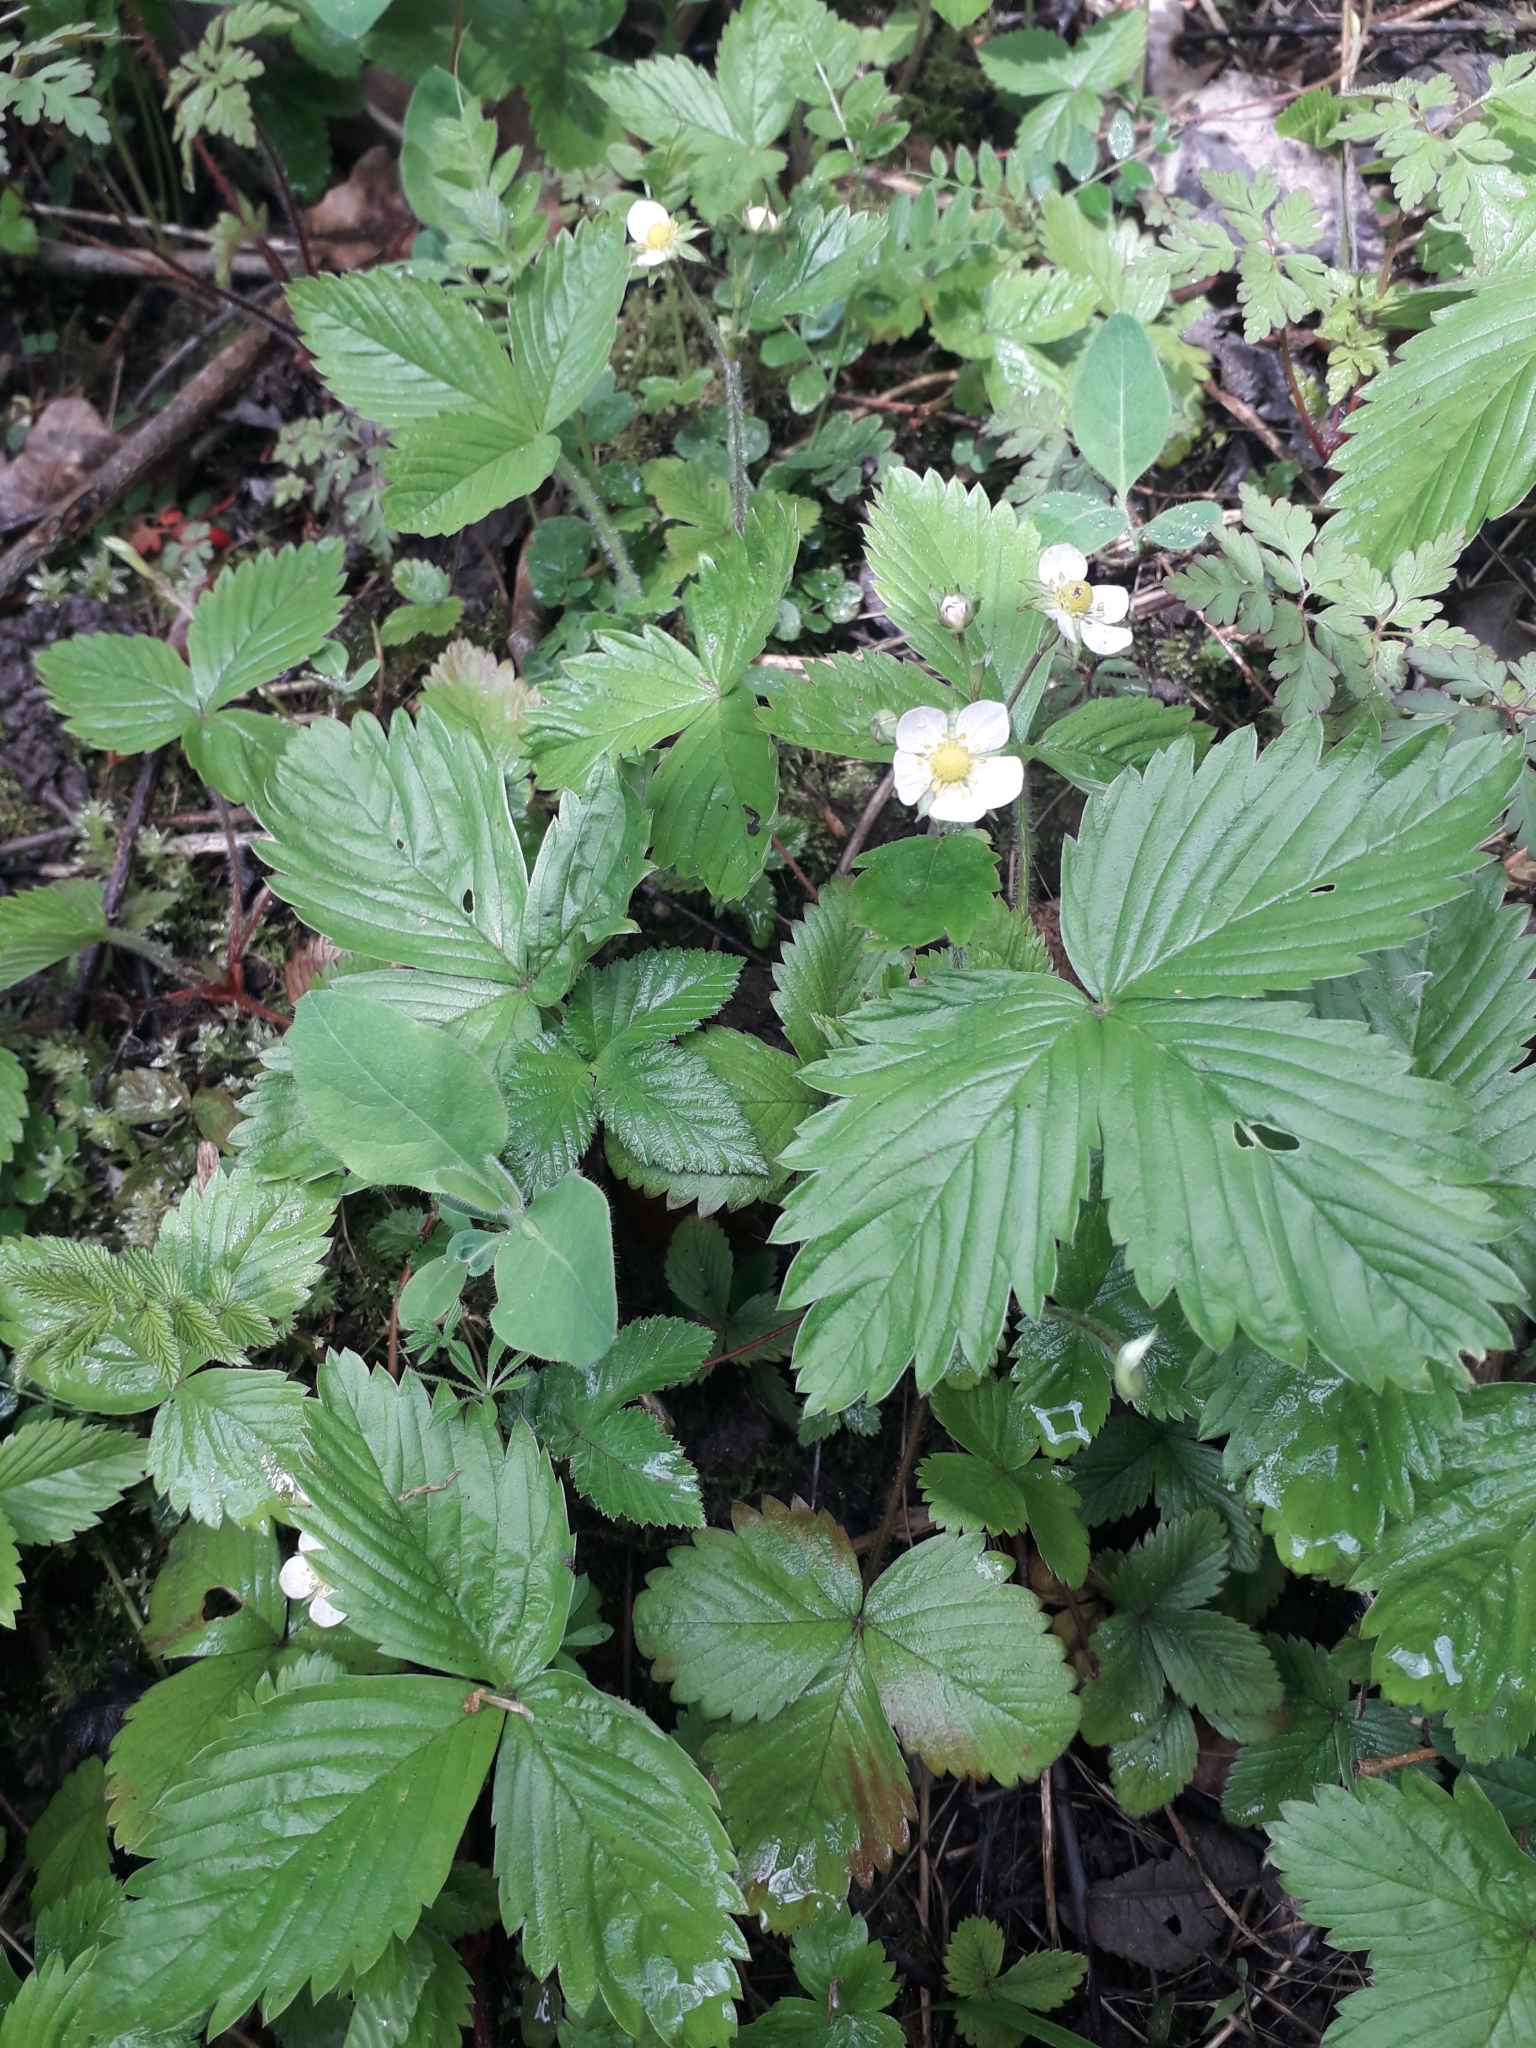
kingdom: Plantae
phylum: Tracheophyta
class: Magnoliopsida
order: Rosales
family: Rosaceae
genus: Fragaria
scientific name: Fragaria vesca
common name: Wild strawberry
